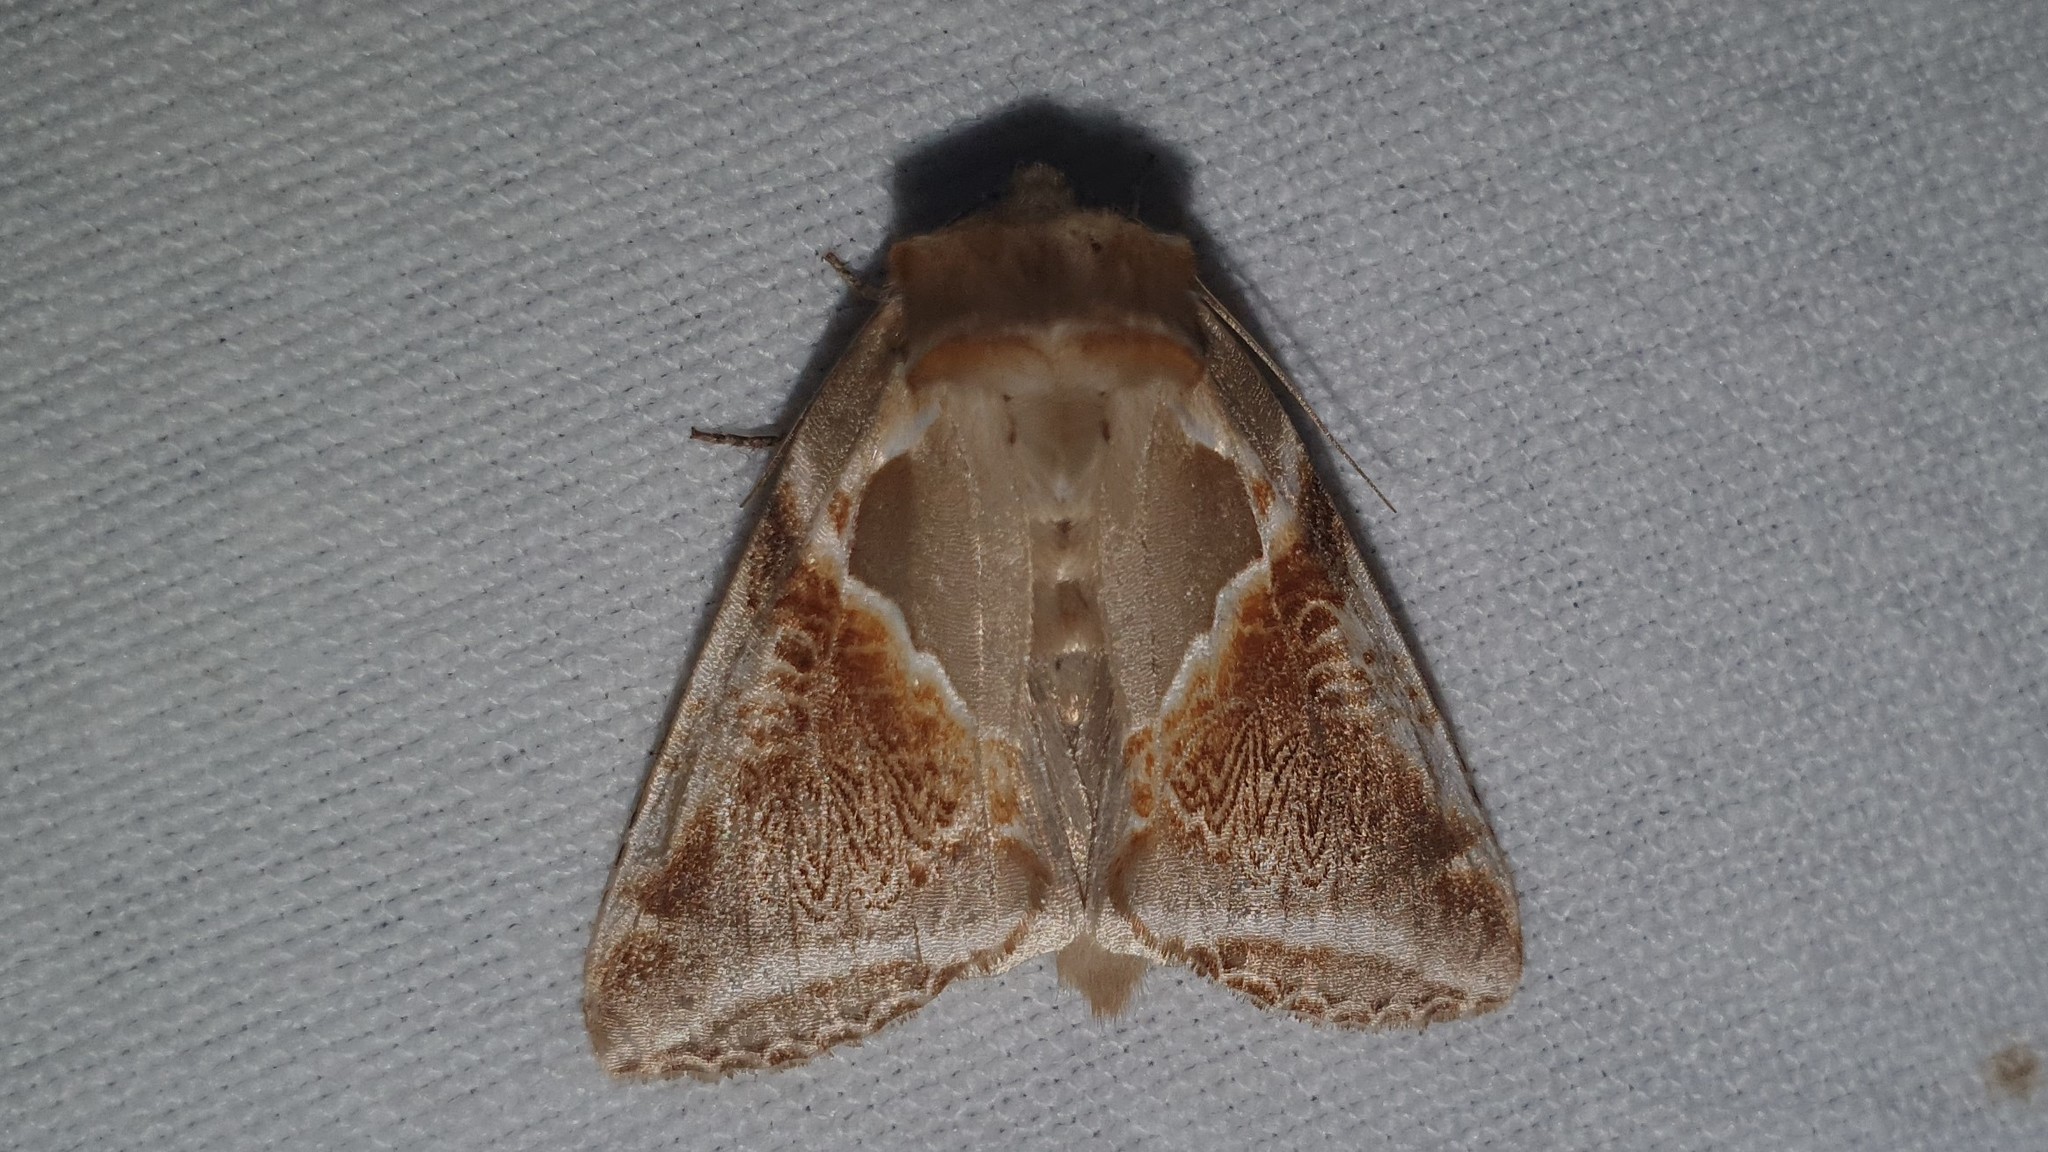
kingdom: Animalia
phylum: Arthropoda
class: Insecta
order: Lepidoptera
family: Drepanidae
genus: Habrosyne
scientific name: Habrosyne pyritoides
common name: Buff arches
